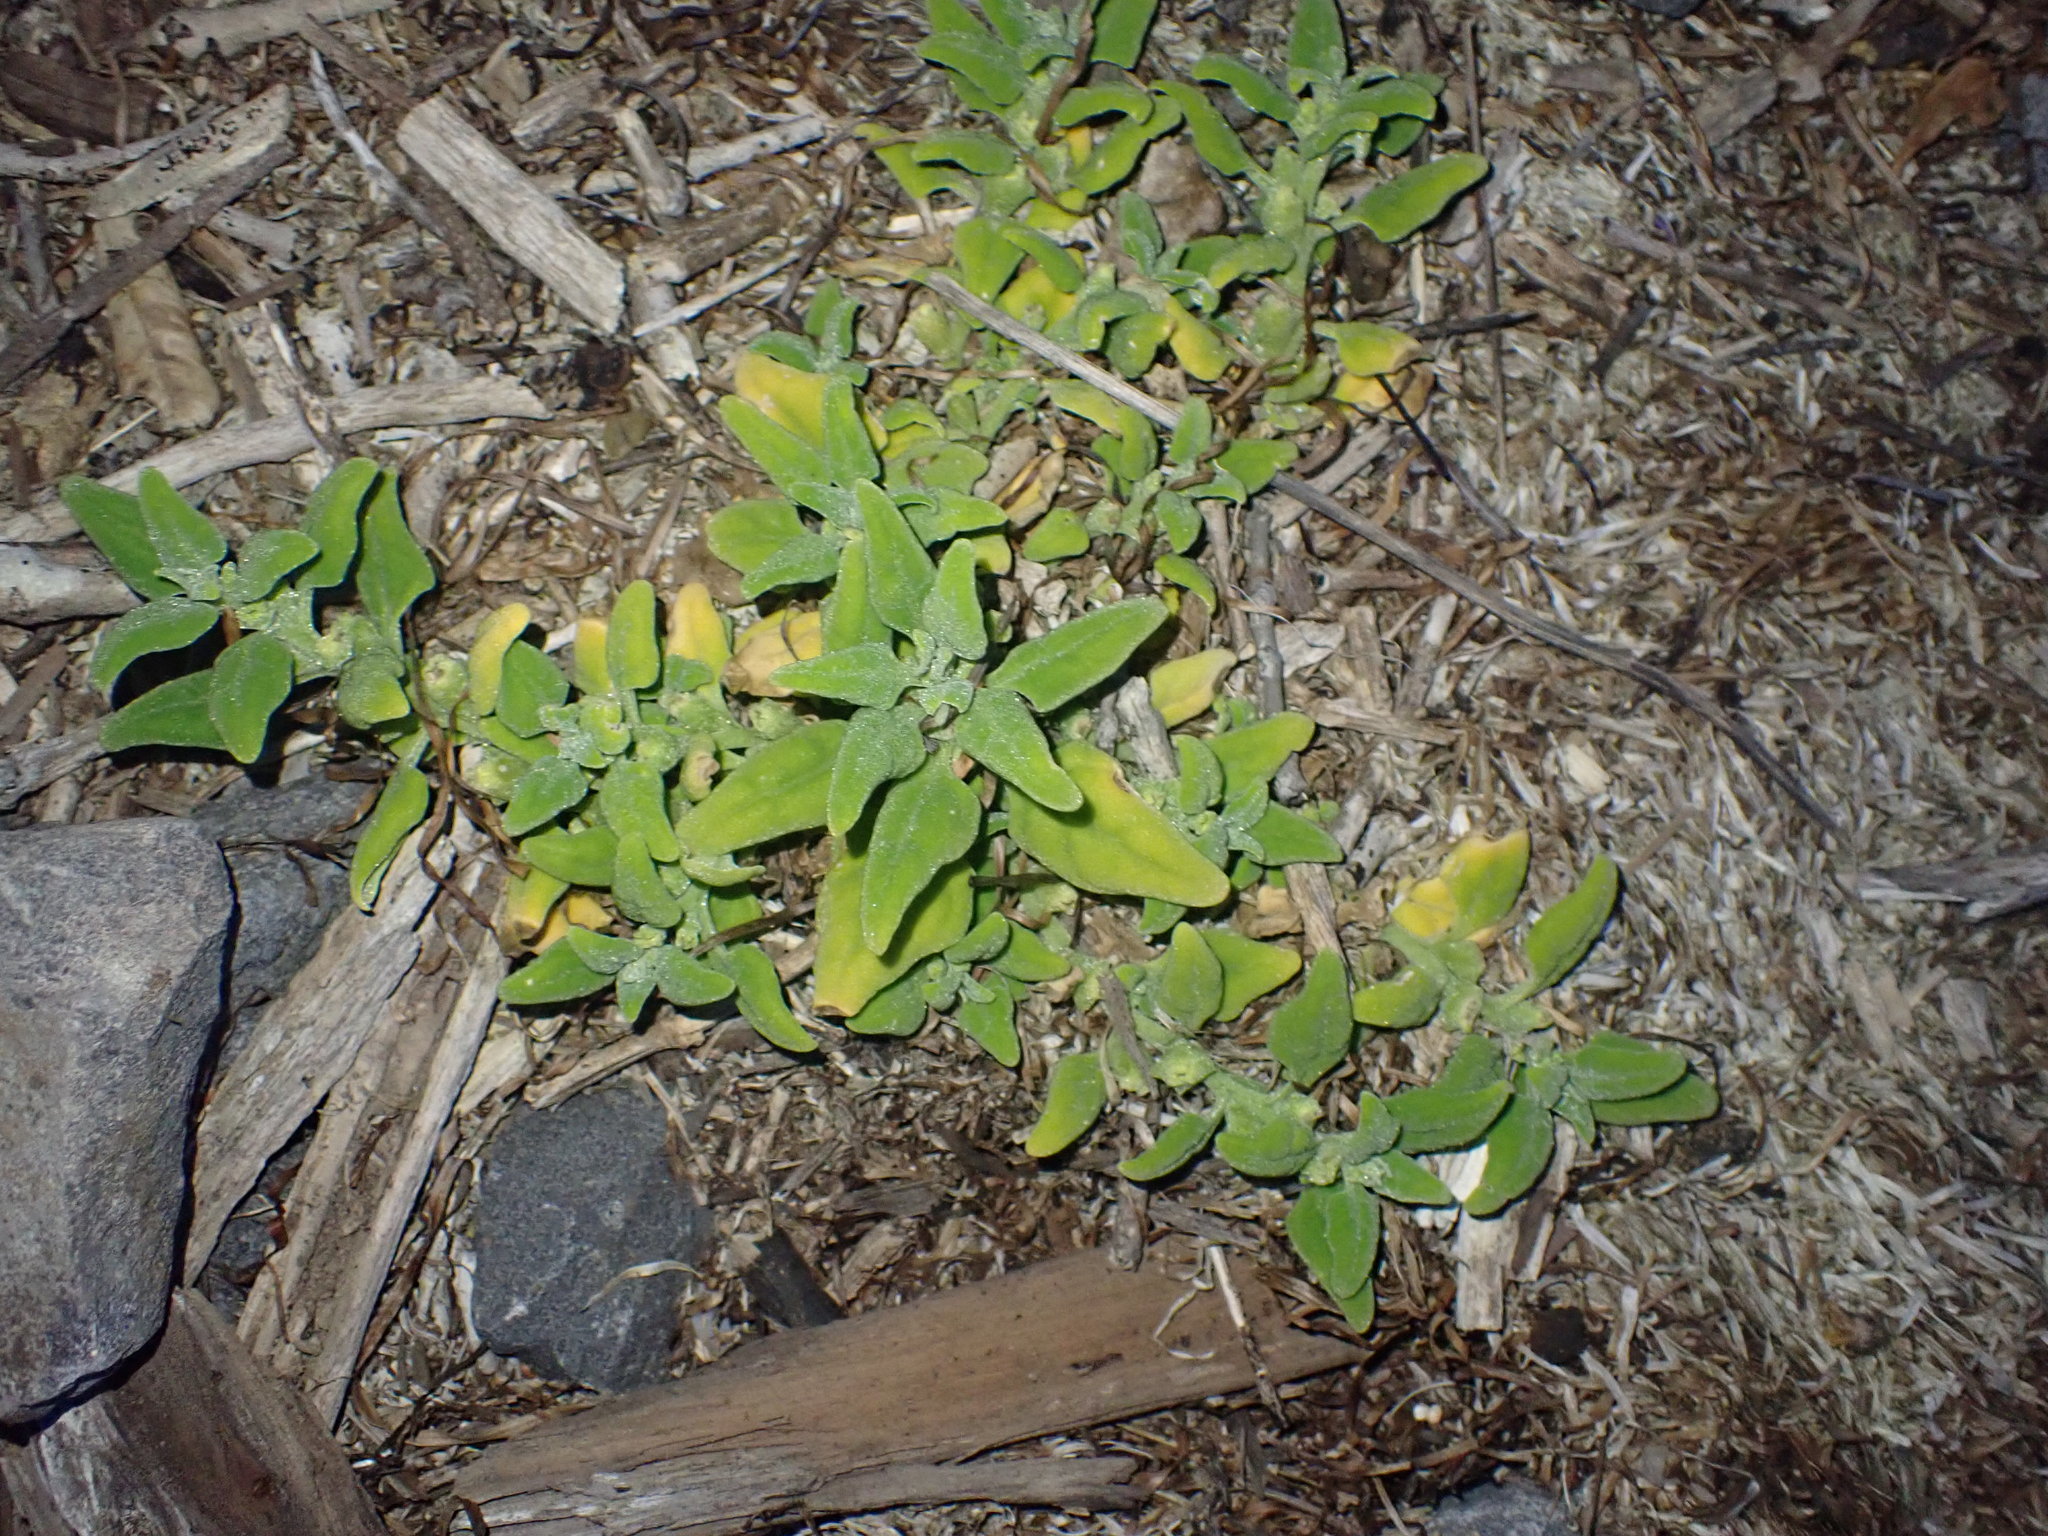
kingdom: Plantae
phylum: Tracheophyta
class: Magnoliopsida
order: Caryophyllales
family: Aizoaceae
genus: Tetragonia
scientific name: Tetragonia tetragonoides
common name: New zealand-spinach
